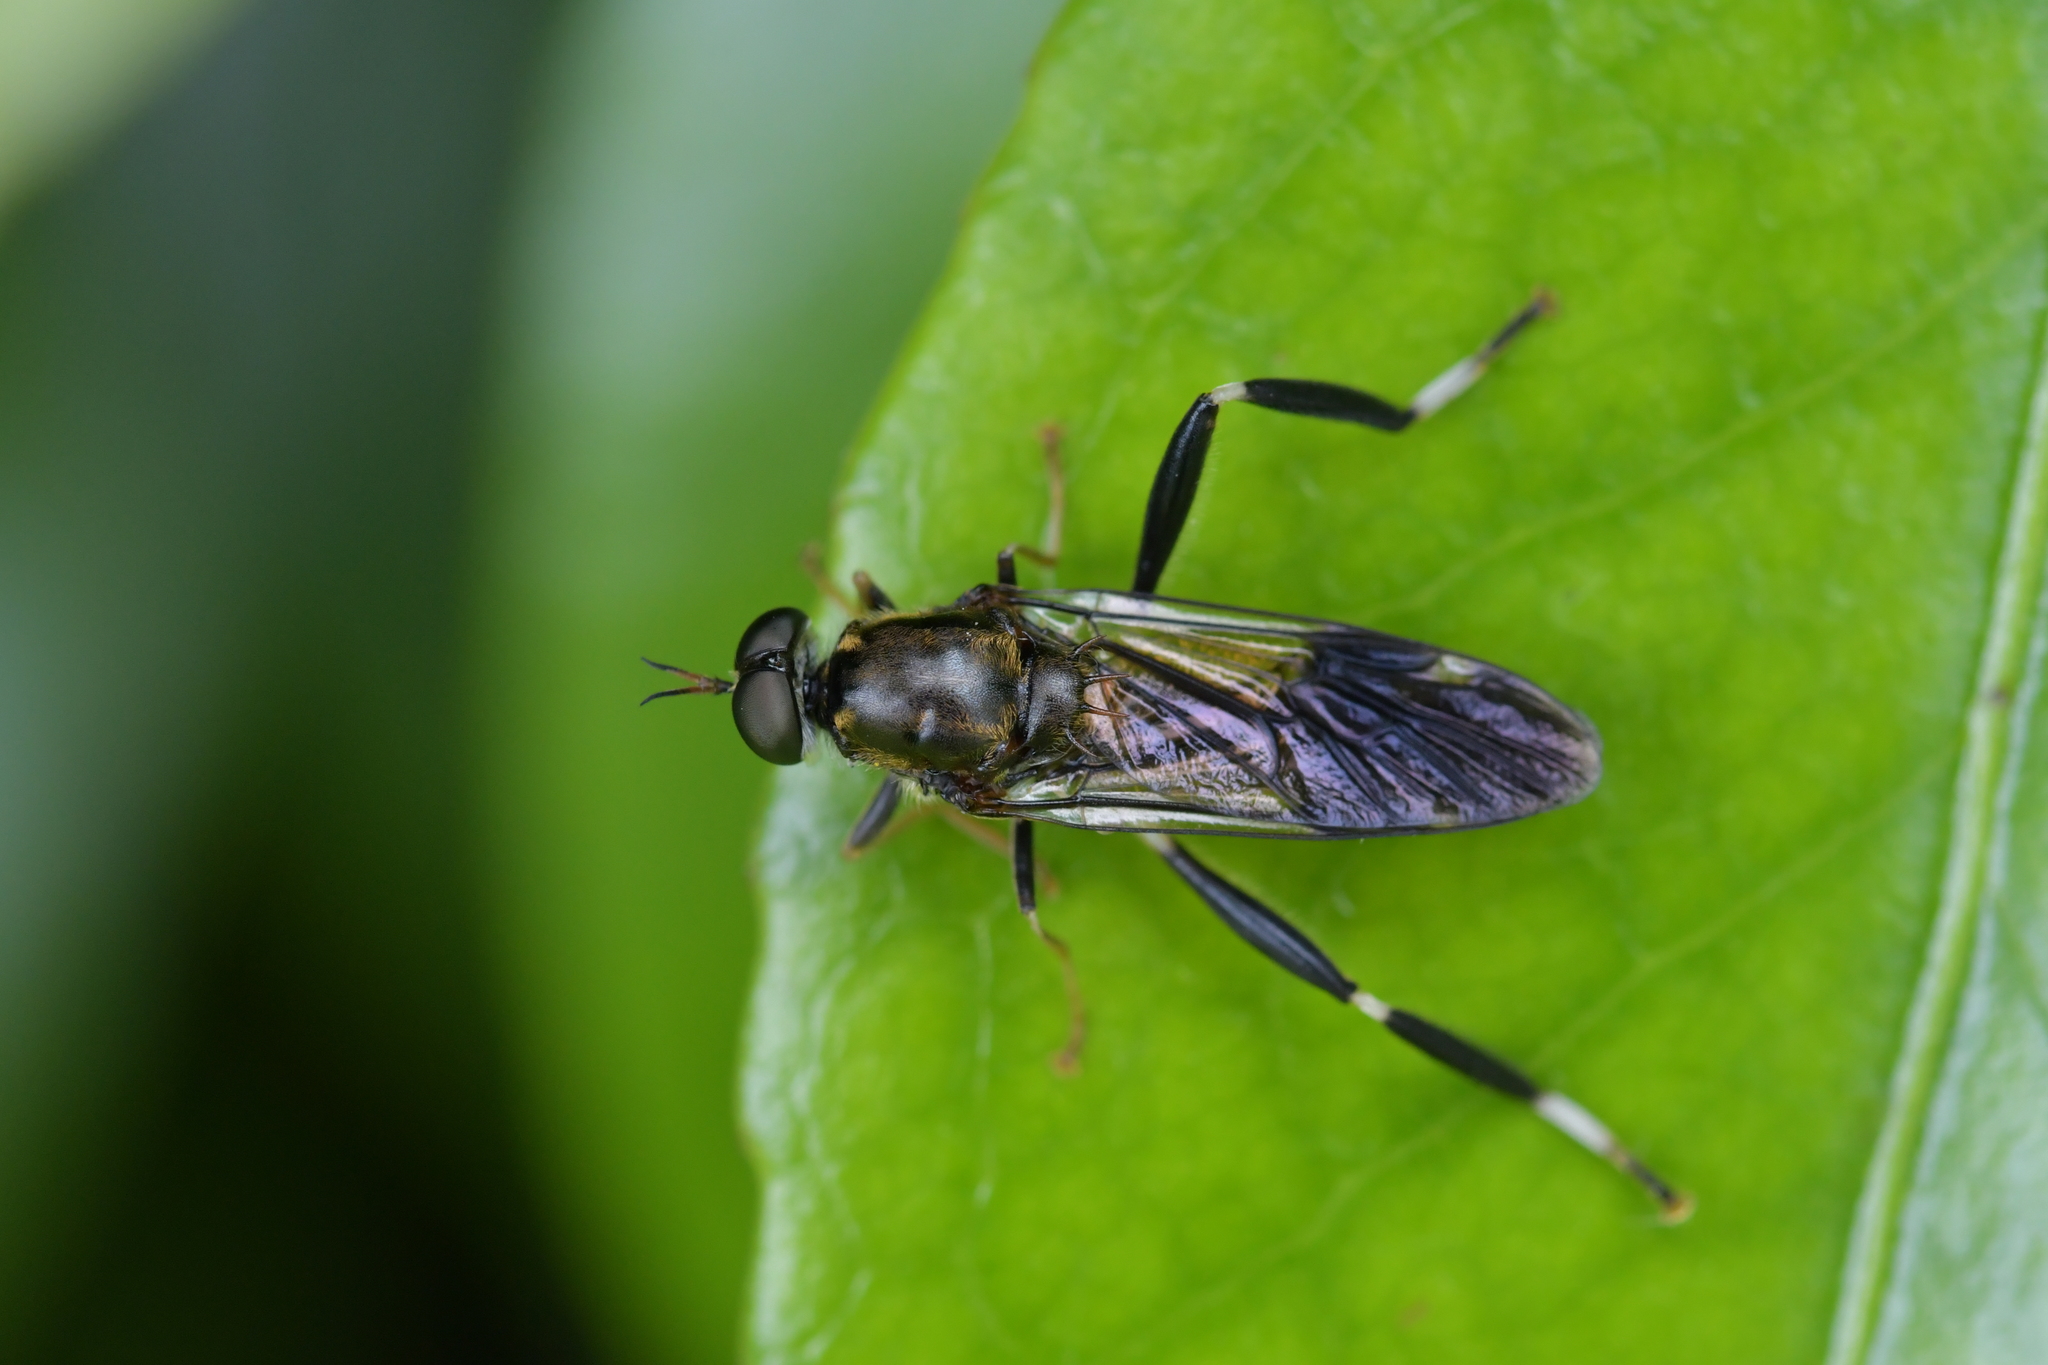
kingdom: Animalia
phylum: Arthropoda
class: Insecta
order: Diptera
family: Stratiomyidae
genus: Exaireta
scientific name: Exaireta spinigera
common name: Blue soldier fly
